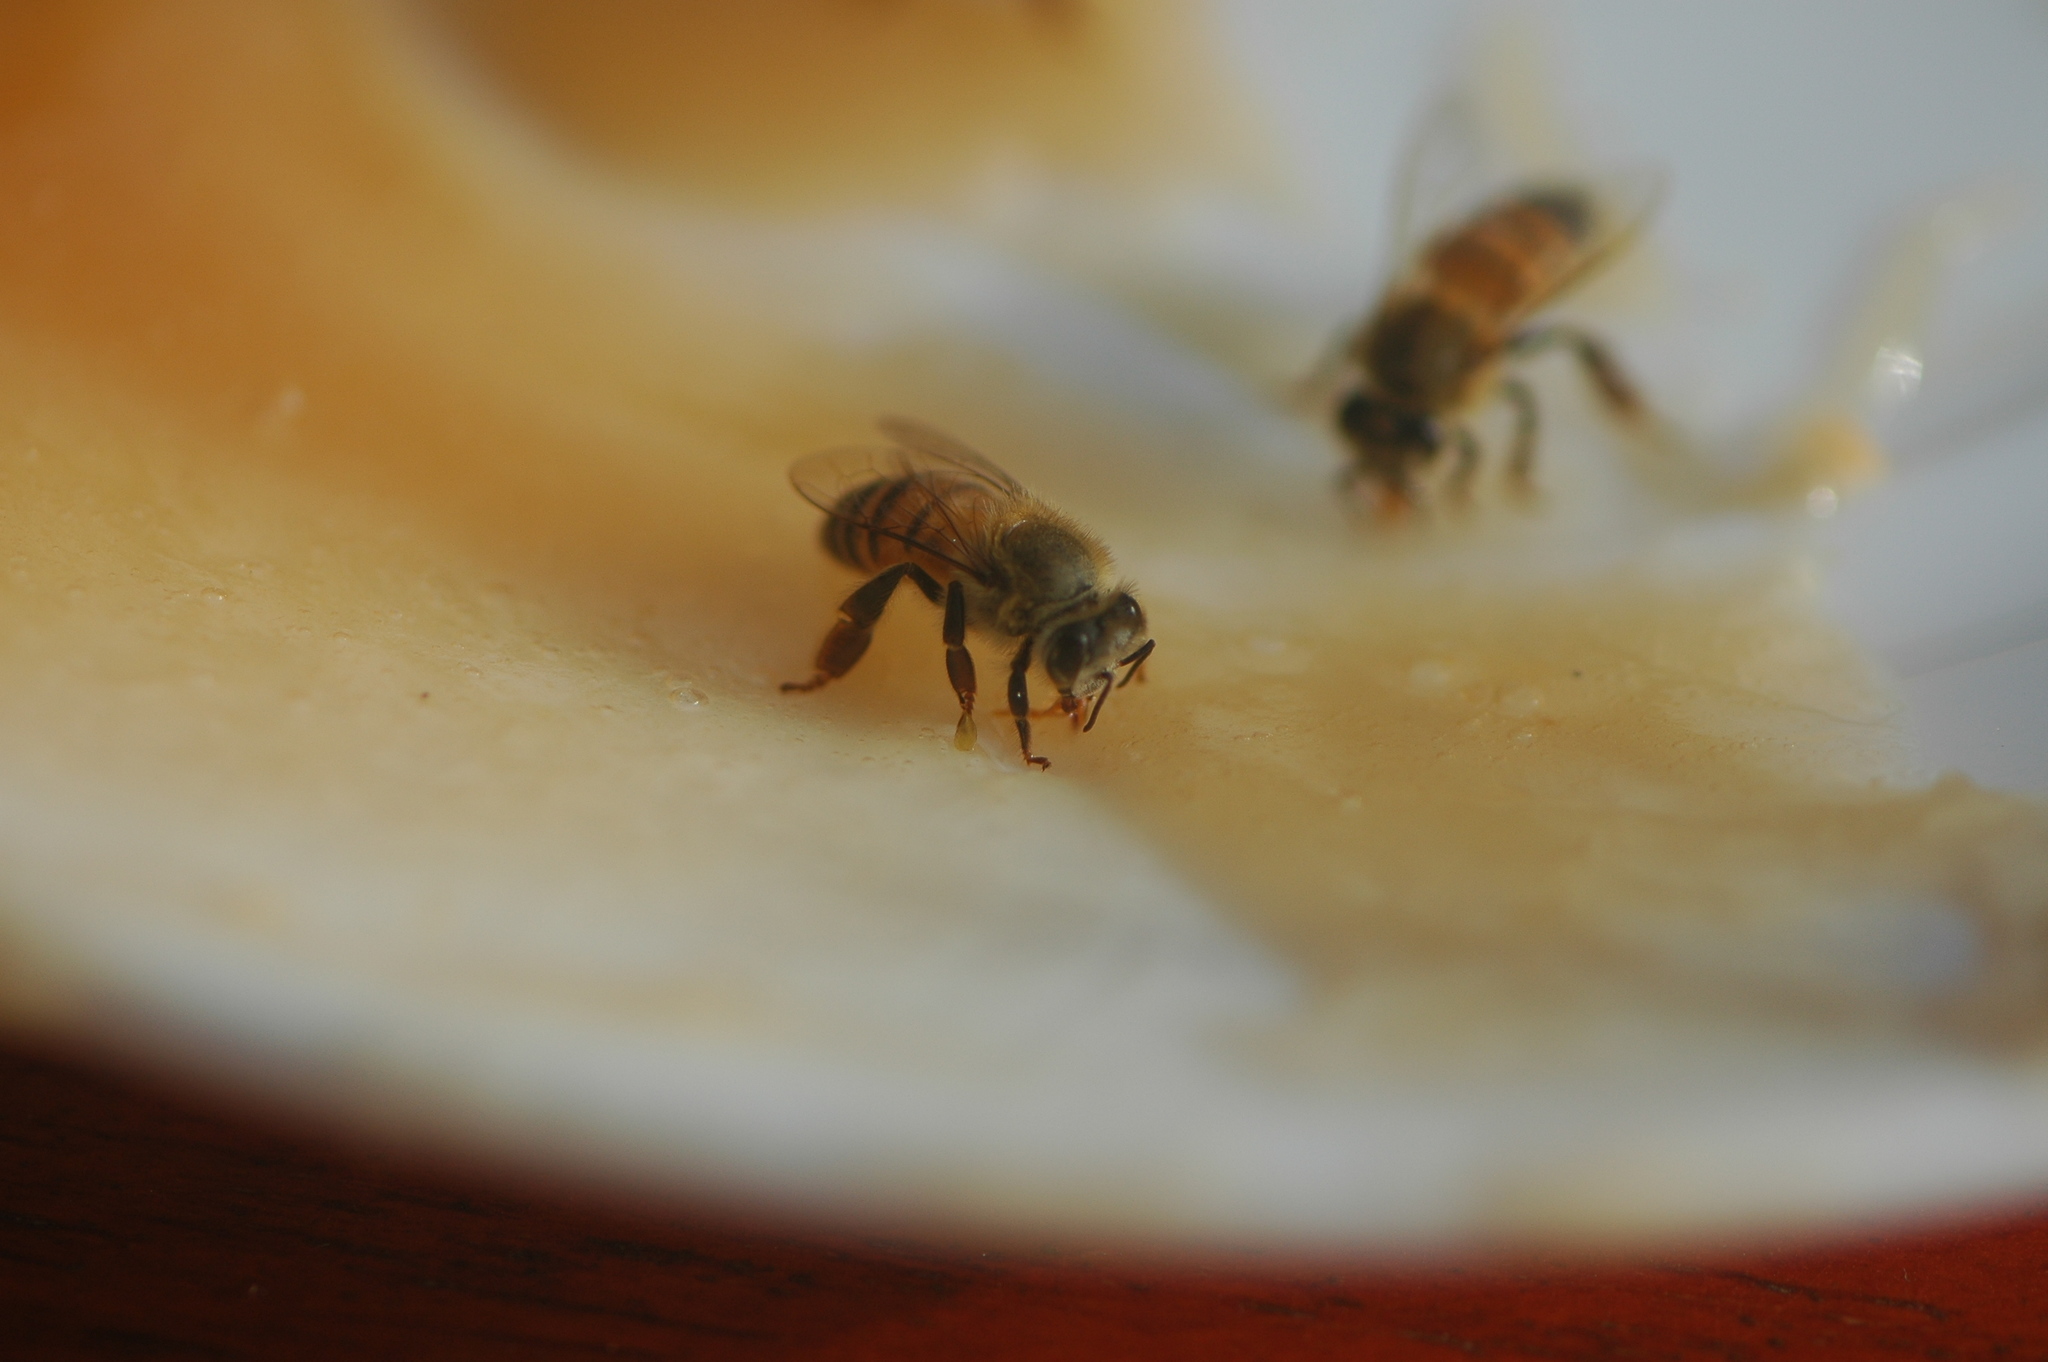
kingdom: Animalia
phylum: Arthropoda
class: Insecta
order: Hymenoptera
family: Apidae
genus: Apis
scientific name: Apis mellifera
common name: Honey bee
